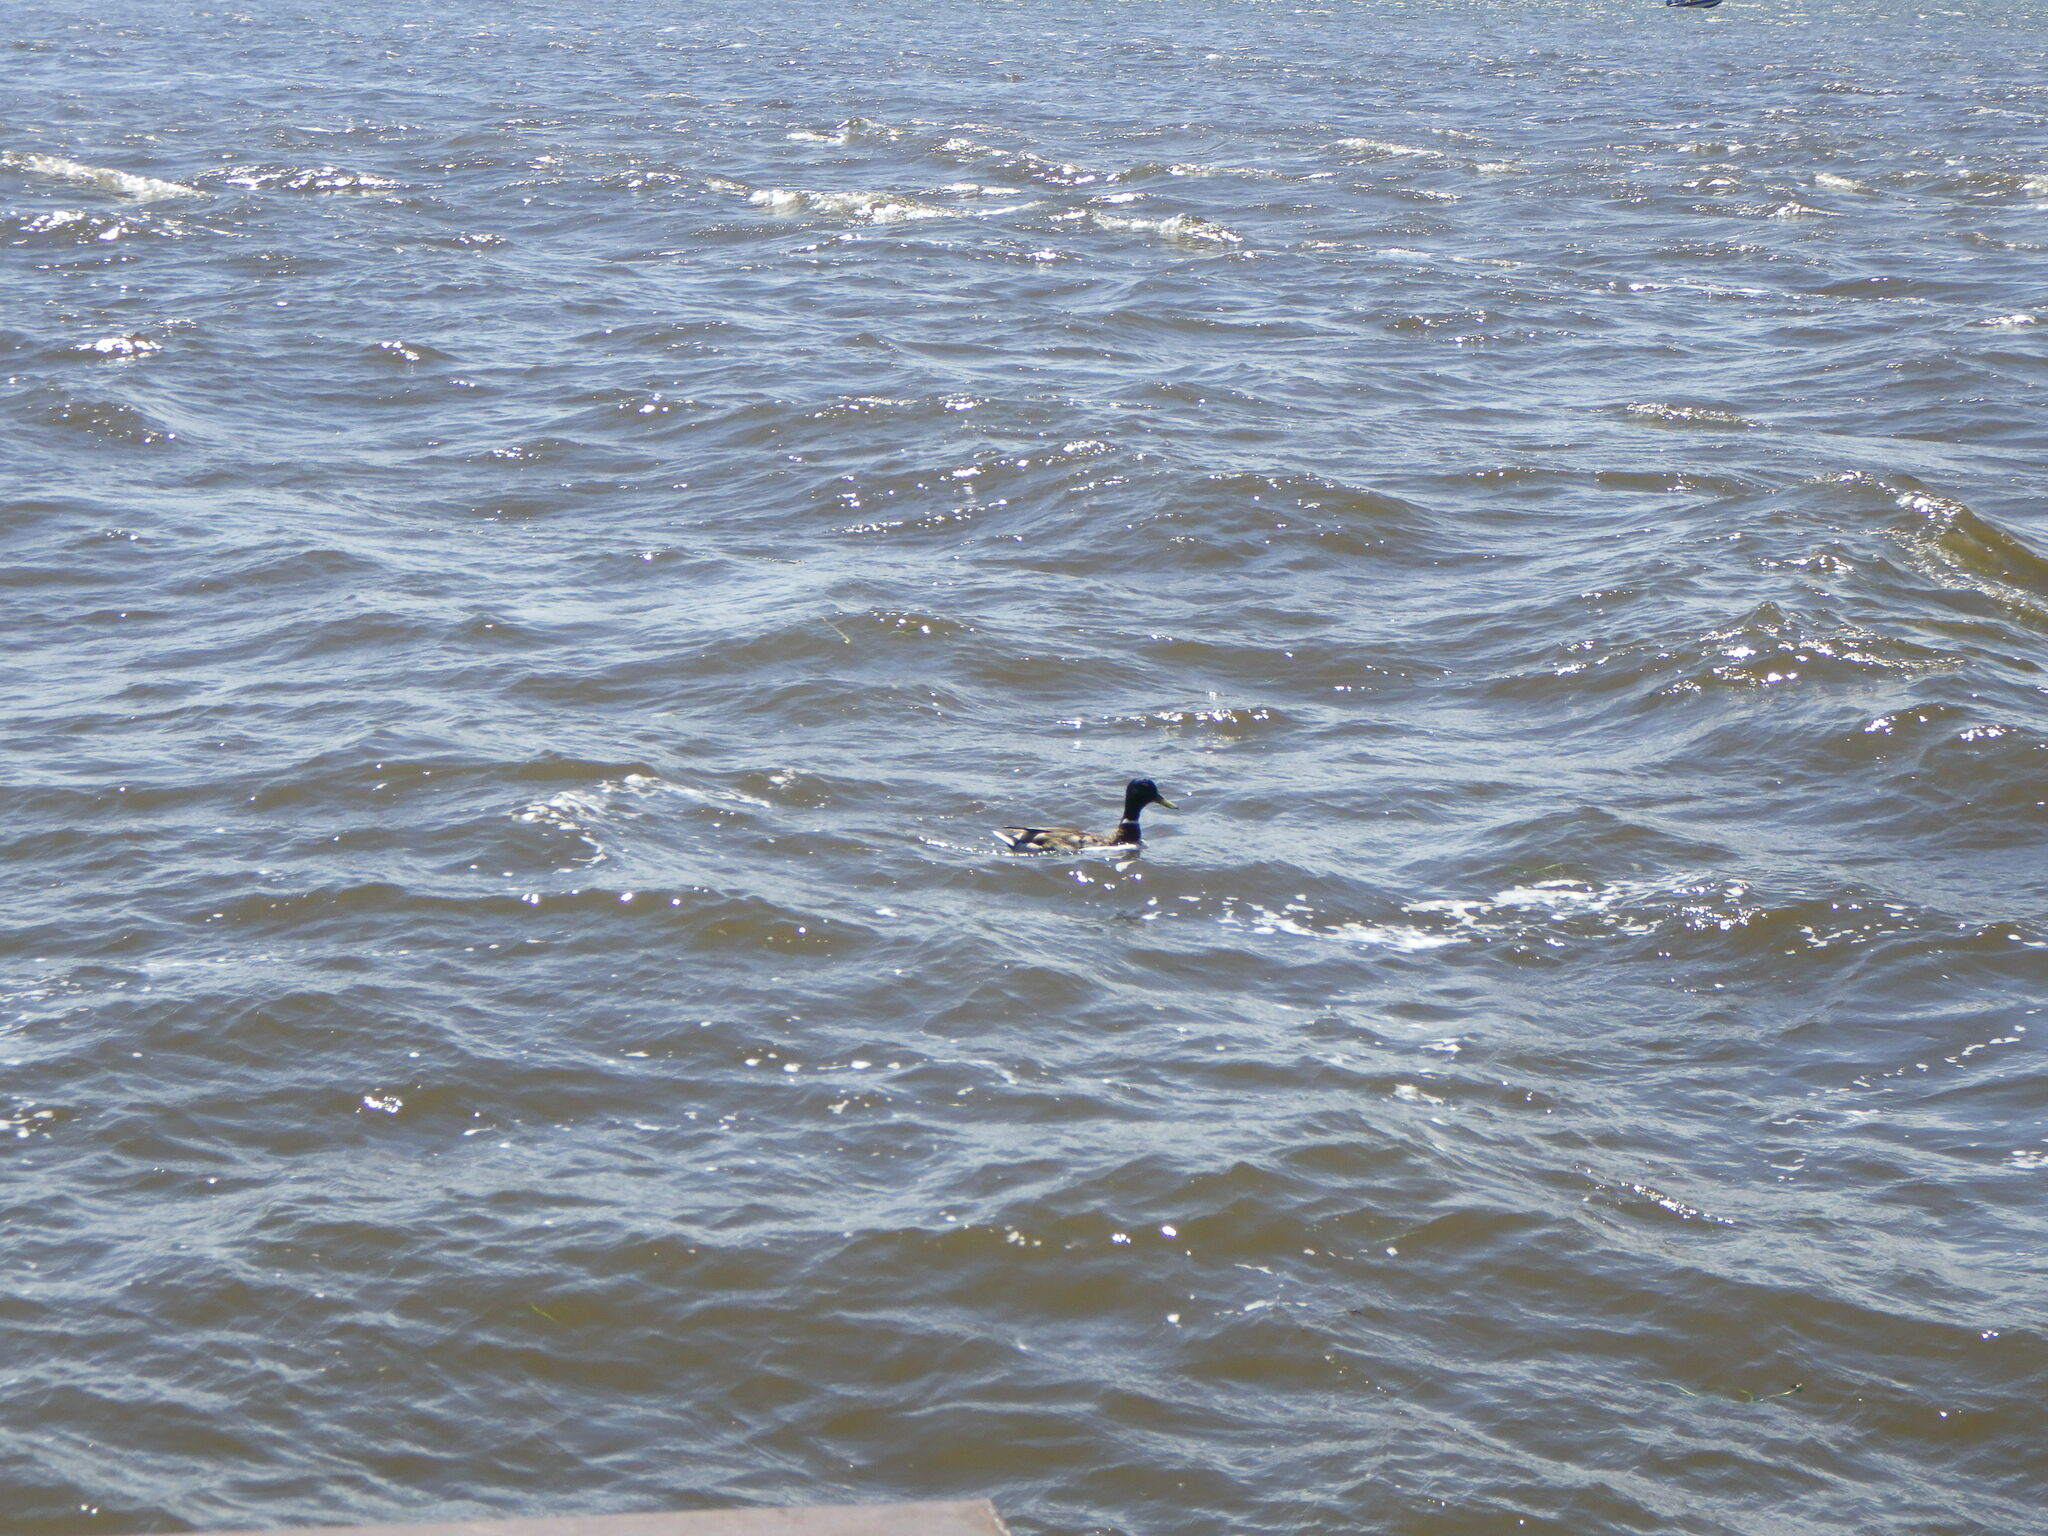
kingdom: Animalia
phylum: Chordata
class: Aves
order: Anseriformes
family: Anatidae
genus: Anas
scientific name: Anas platyrhynchos
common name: Mallard
